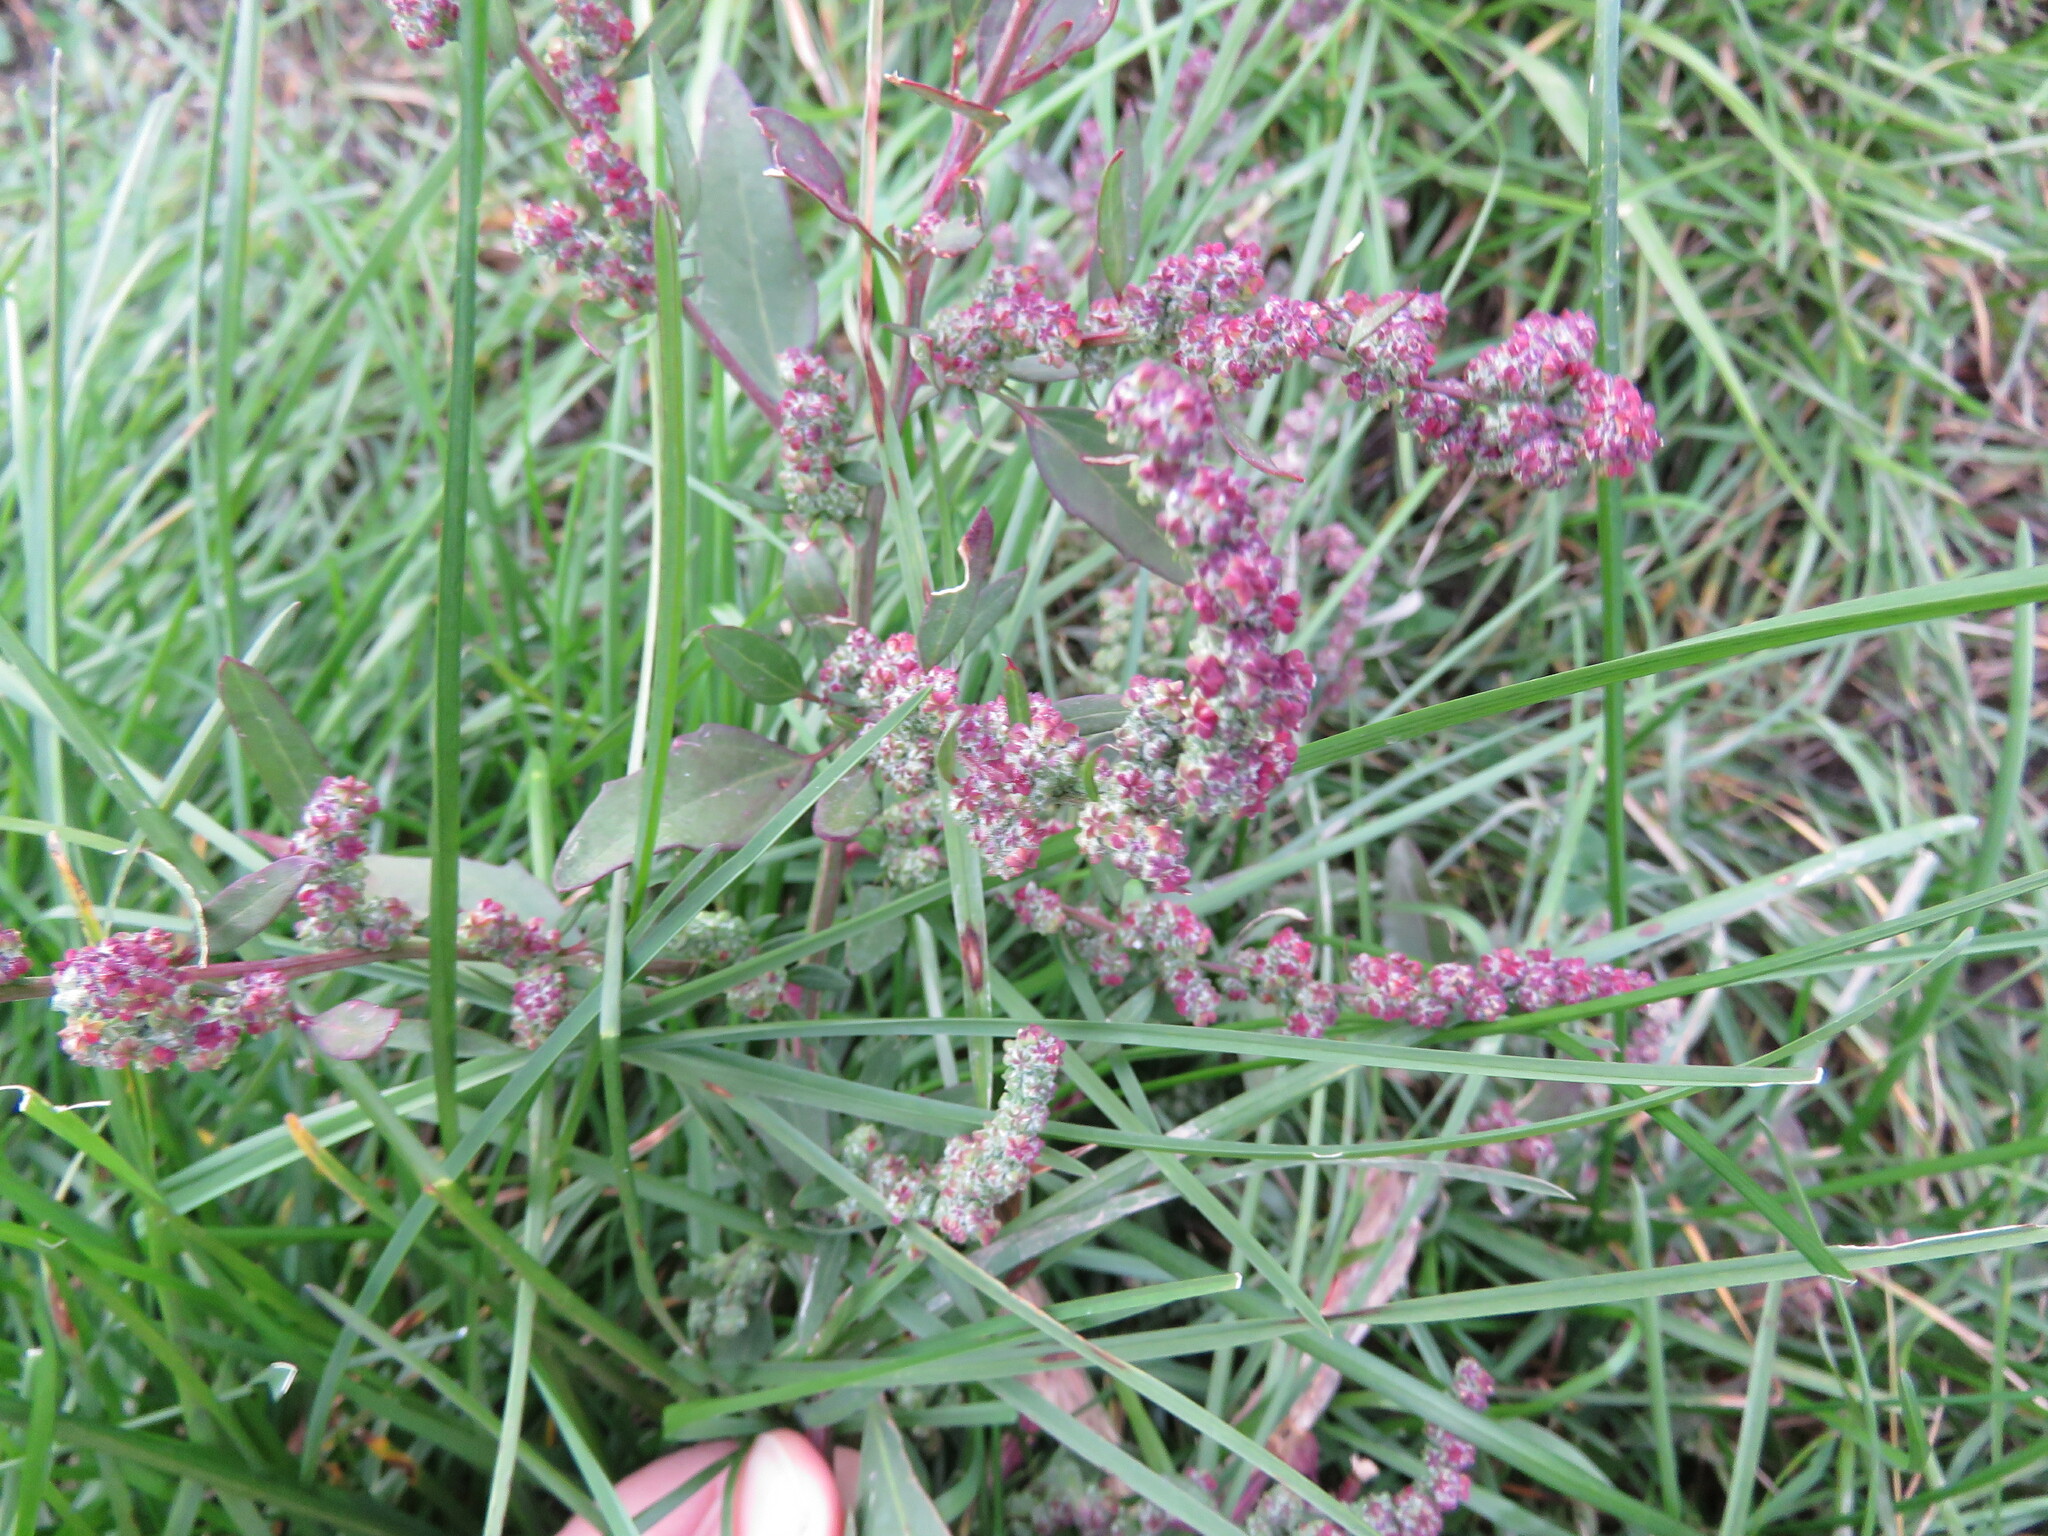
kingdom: Plantae
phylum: Tracheophyta
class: Magnoliopsida
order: Caryophyllales
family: Amaranthaceae
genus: Chenopodium
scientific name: Chenopodium album
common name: Fat-hen
